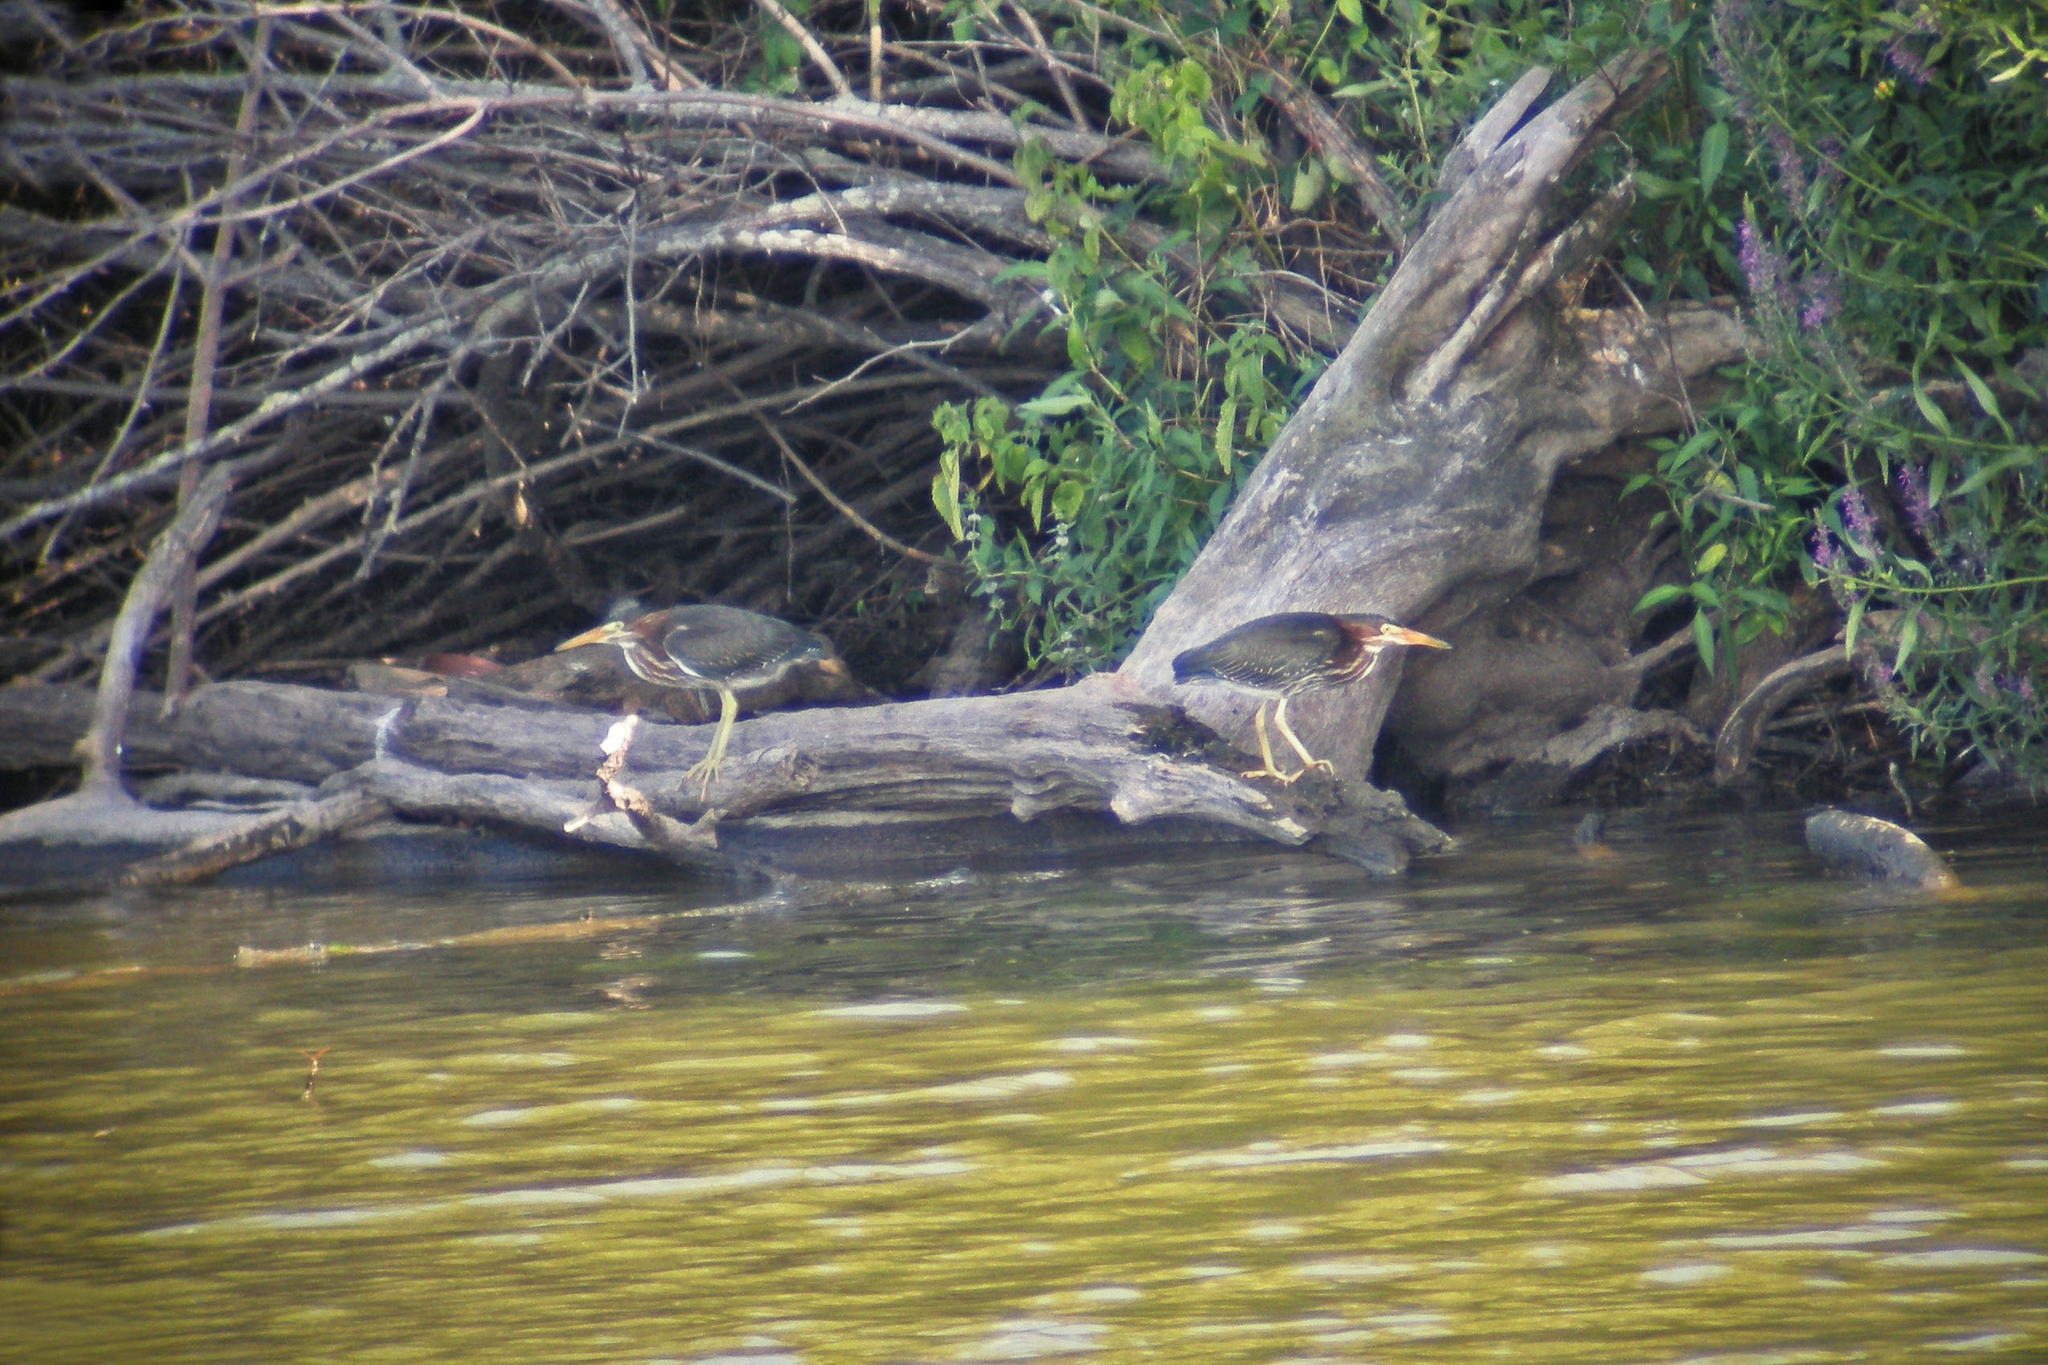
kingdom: Animalia
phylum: Chordata
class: Aves
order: Pelecaniformes
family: Ardeidae
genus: Butorides
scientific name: Butorides virescens
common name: Green heron
